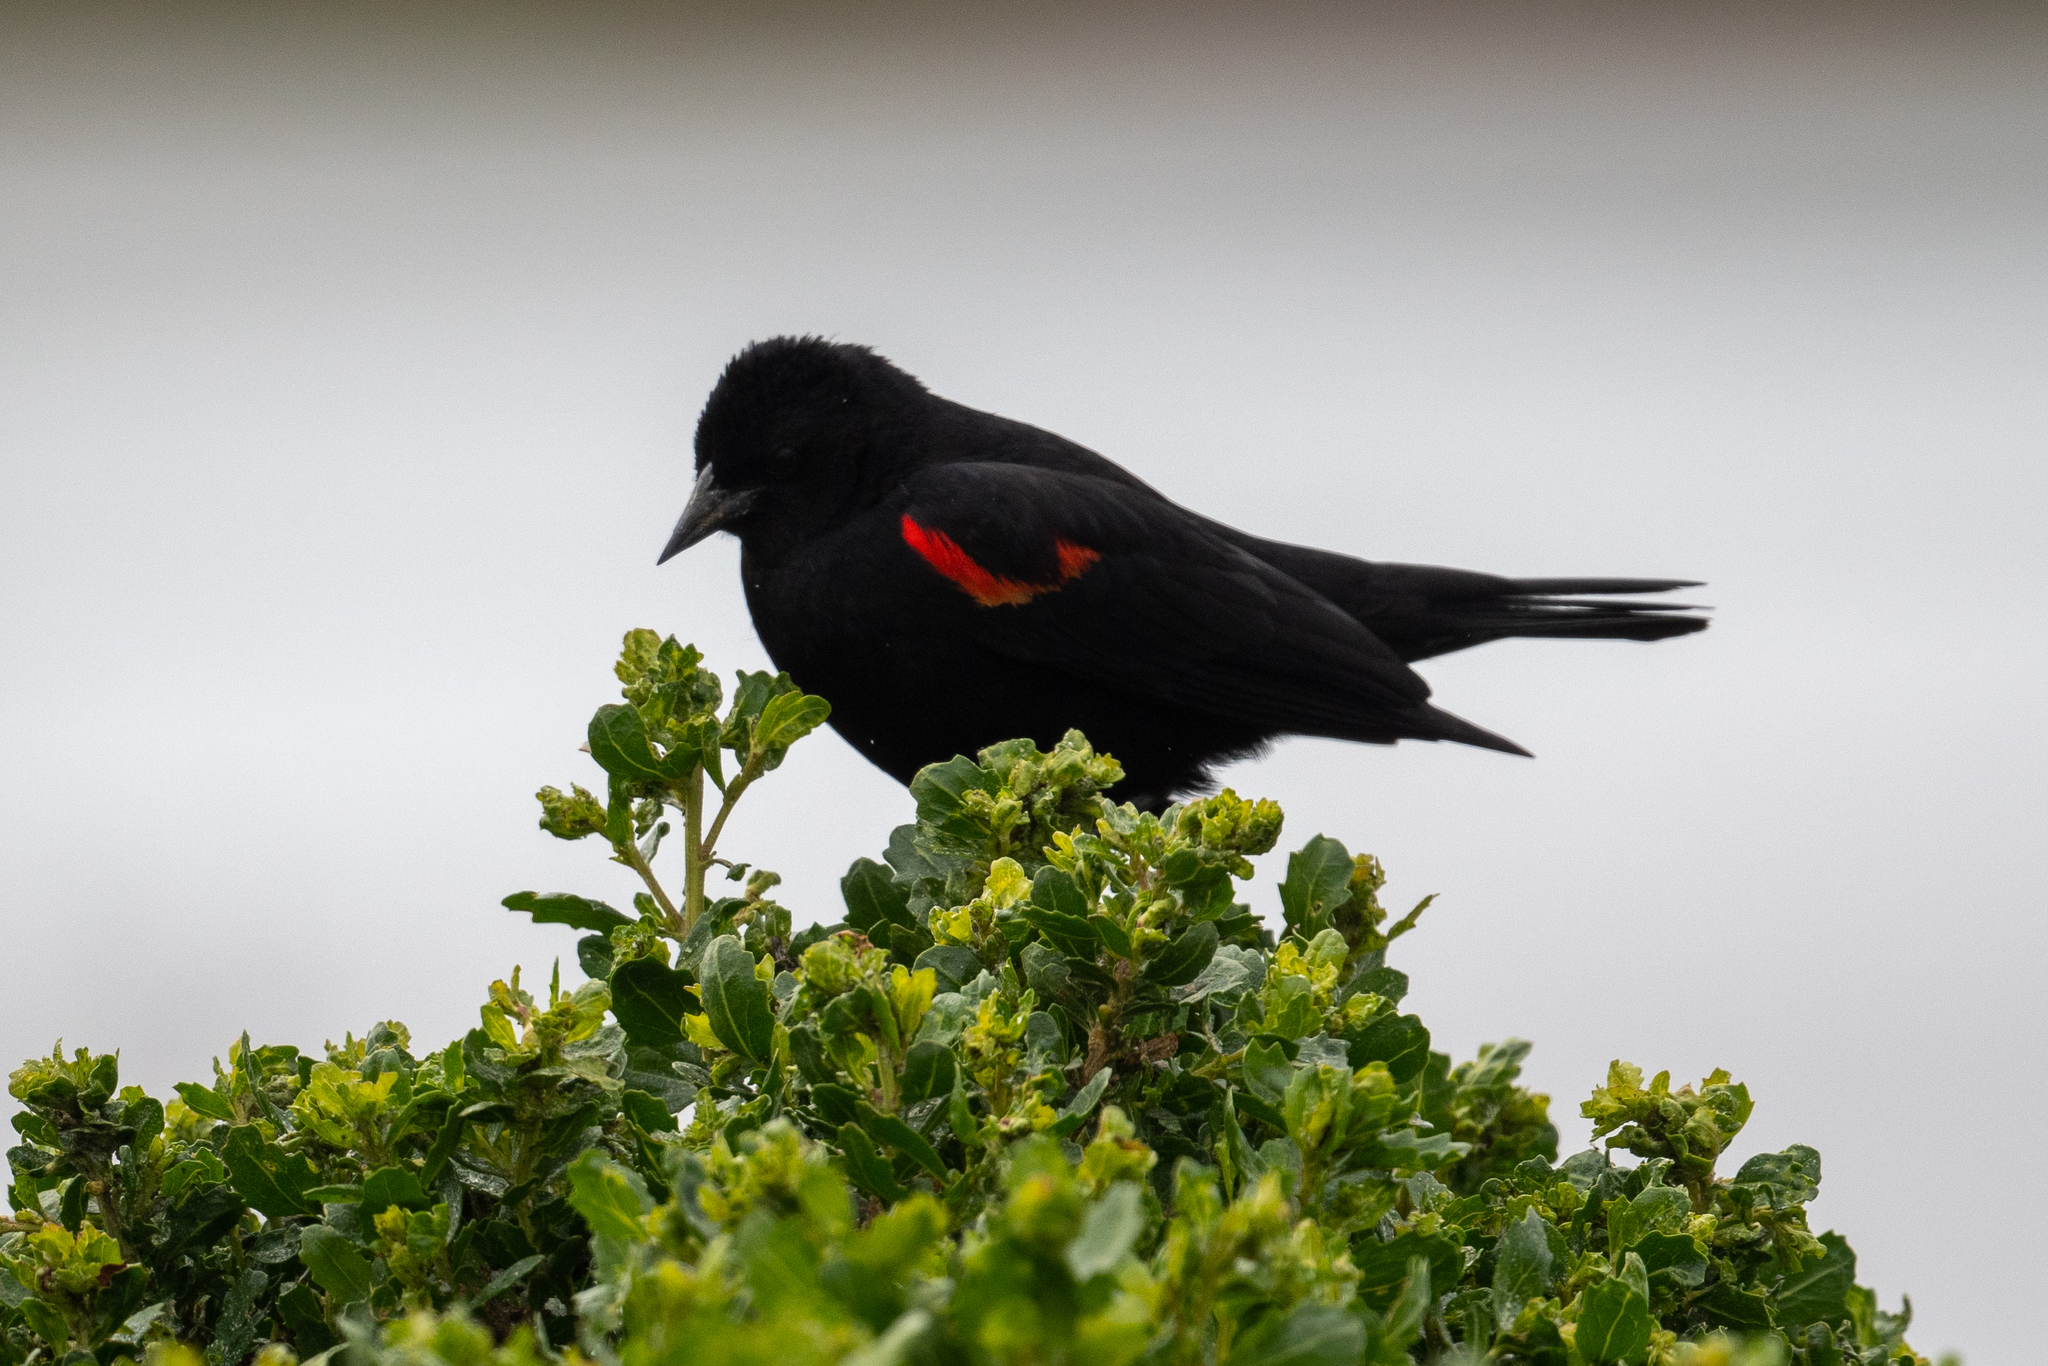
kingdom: Animalia
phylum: Chordata
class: Aves
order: Passeriformes
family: Icteridae
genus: Agelaius
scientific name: Agelaius phoeniceus
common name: Red-winged blackbird
